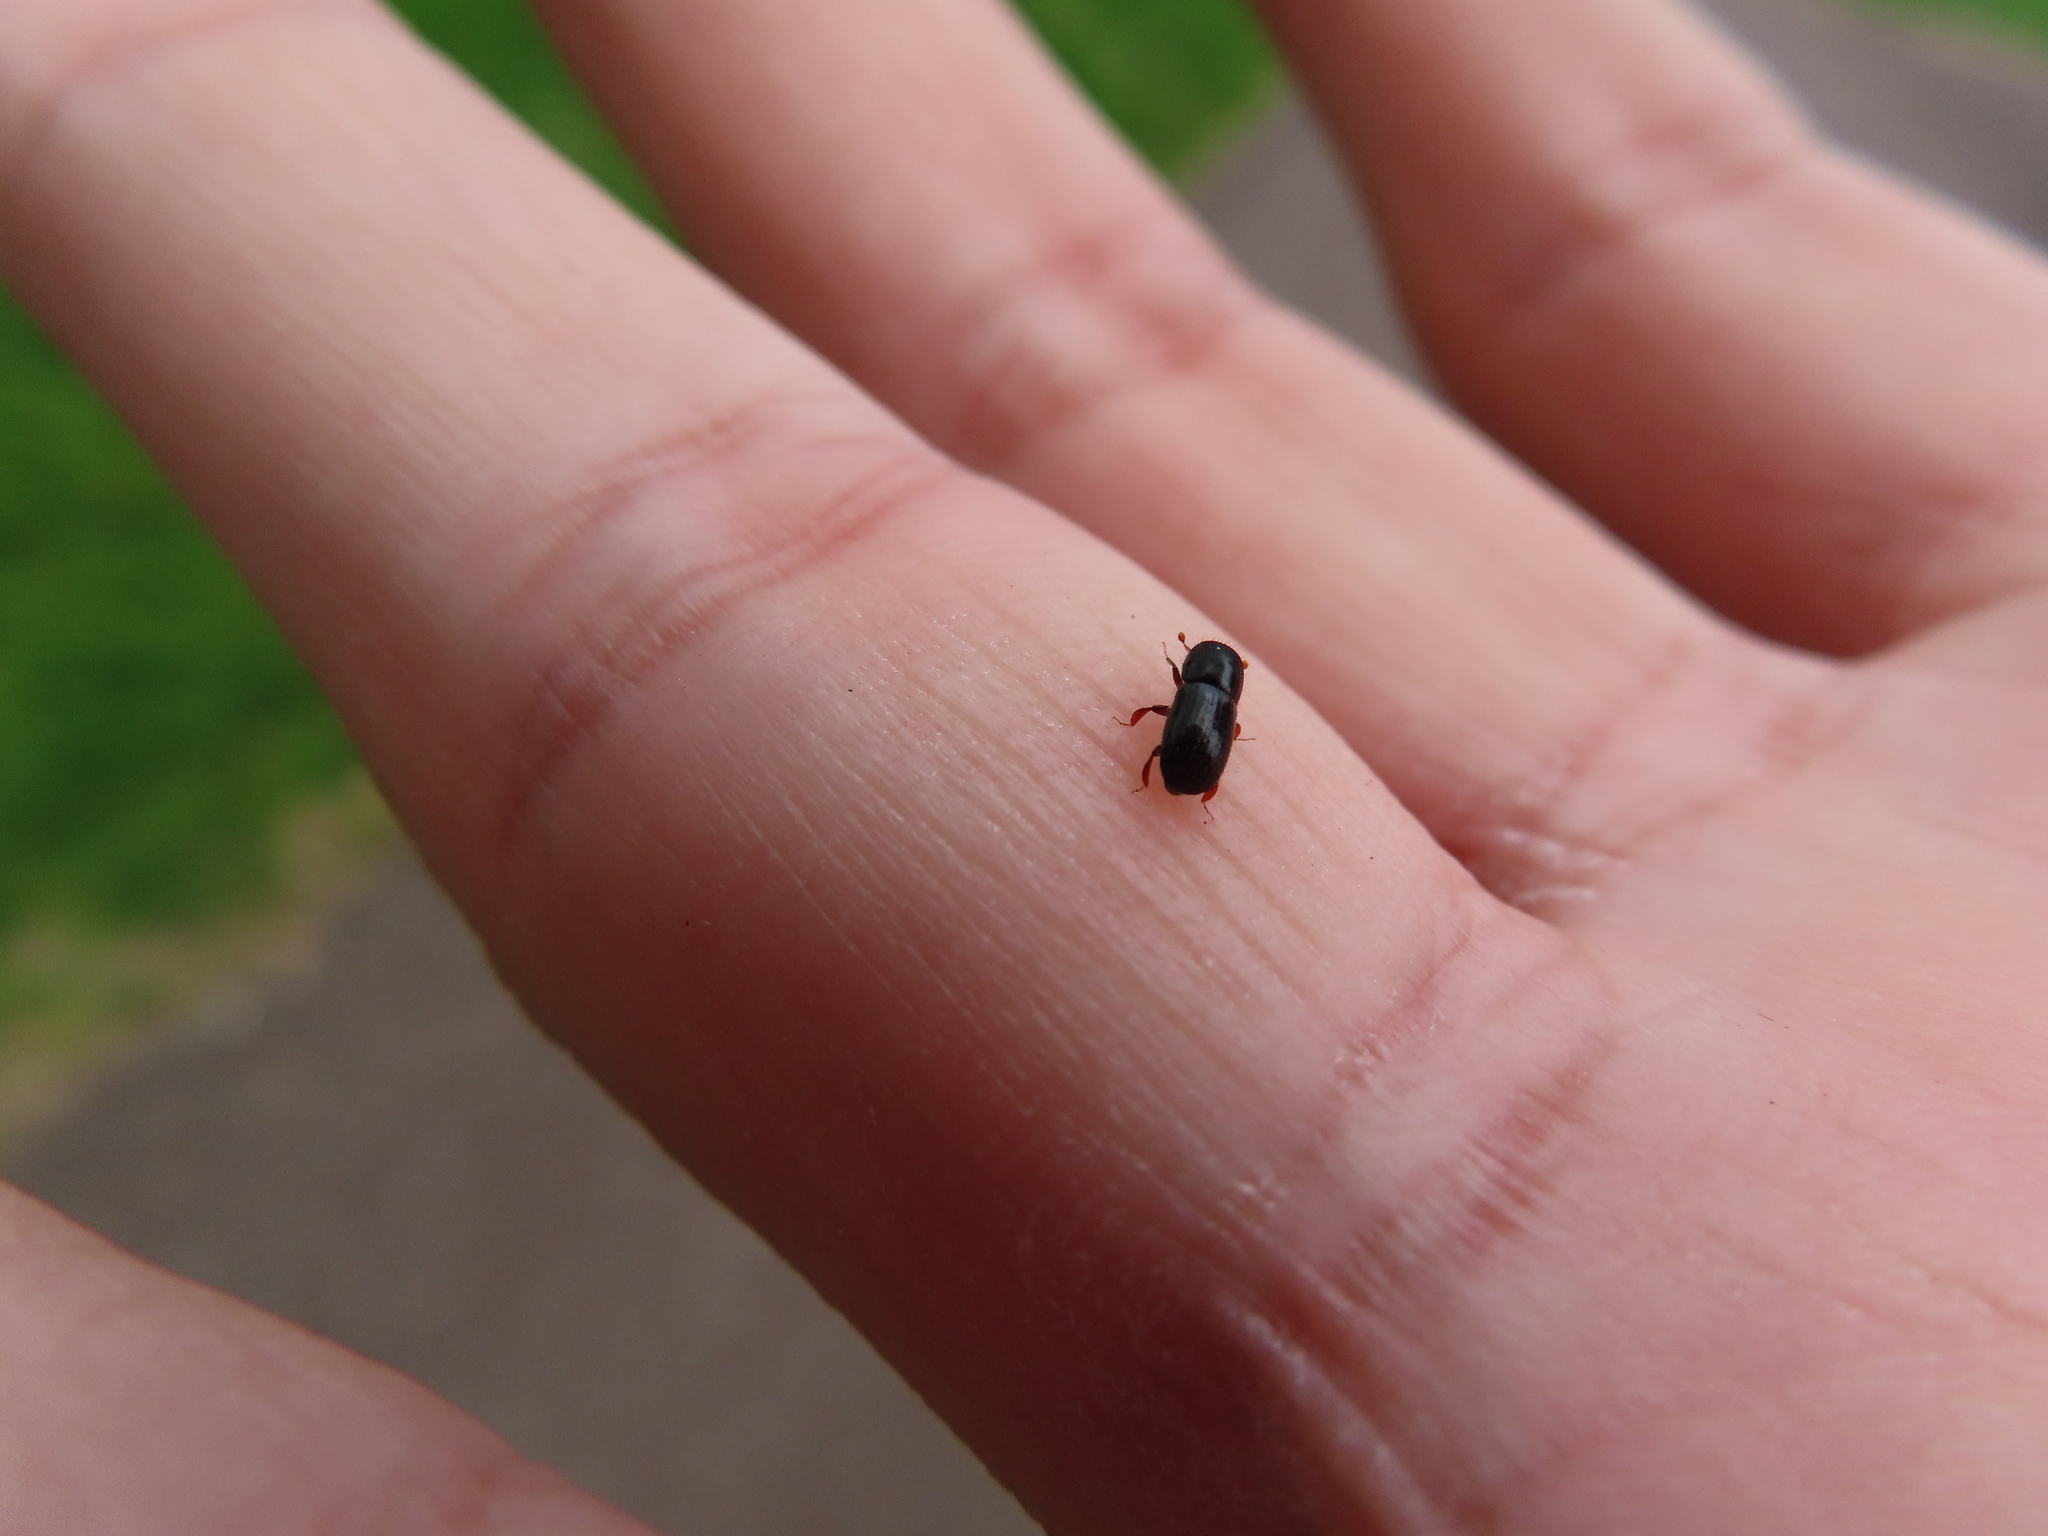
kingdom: Animalia
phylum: Arthropoda
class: Insecta
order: Coleoptera
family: Curculionidae
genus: Euwallacea
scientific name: Euwallacea validus
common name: Bark beetle
